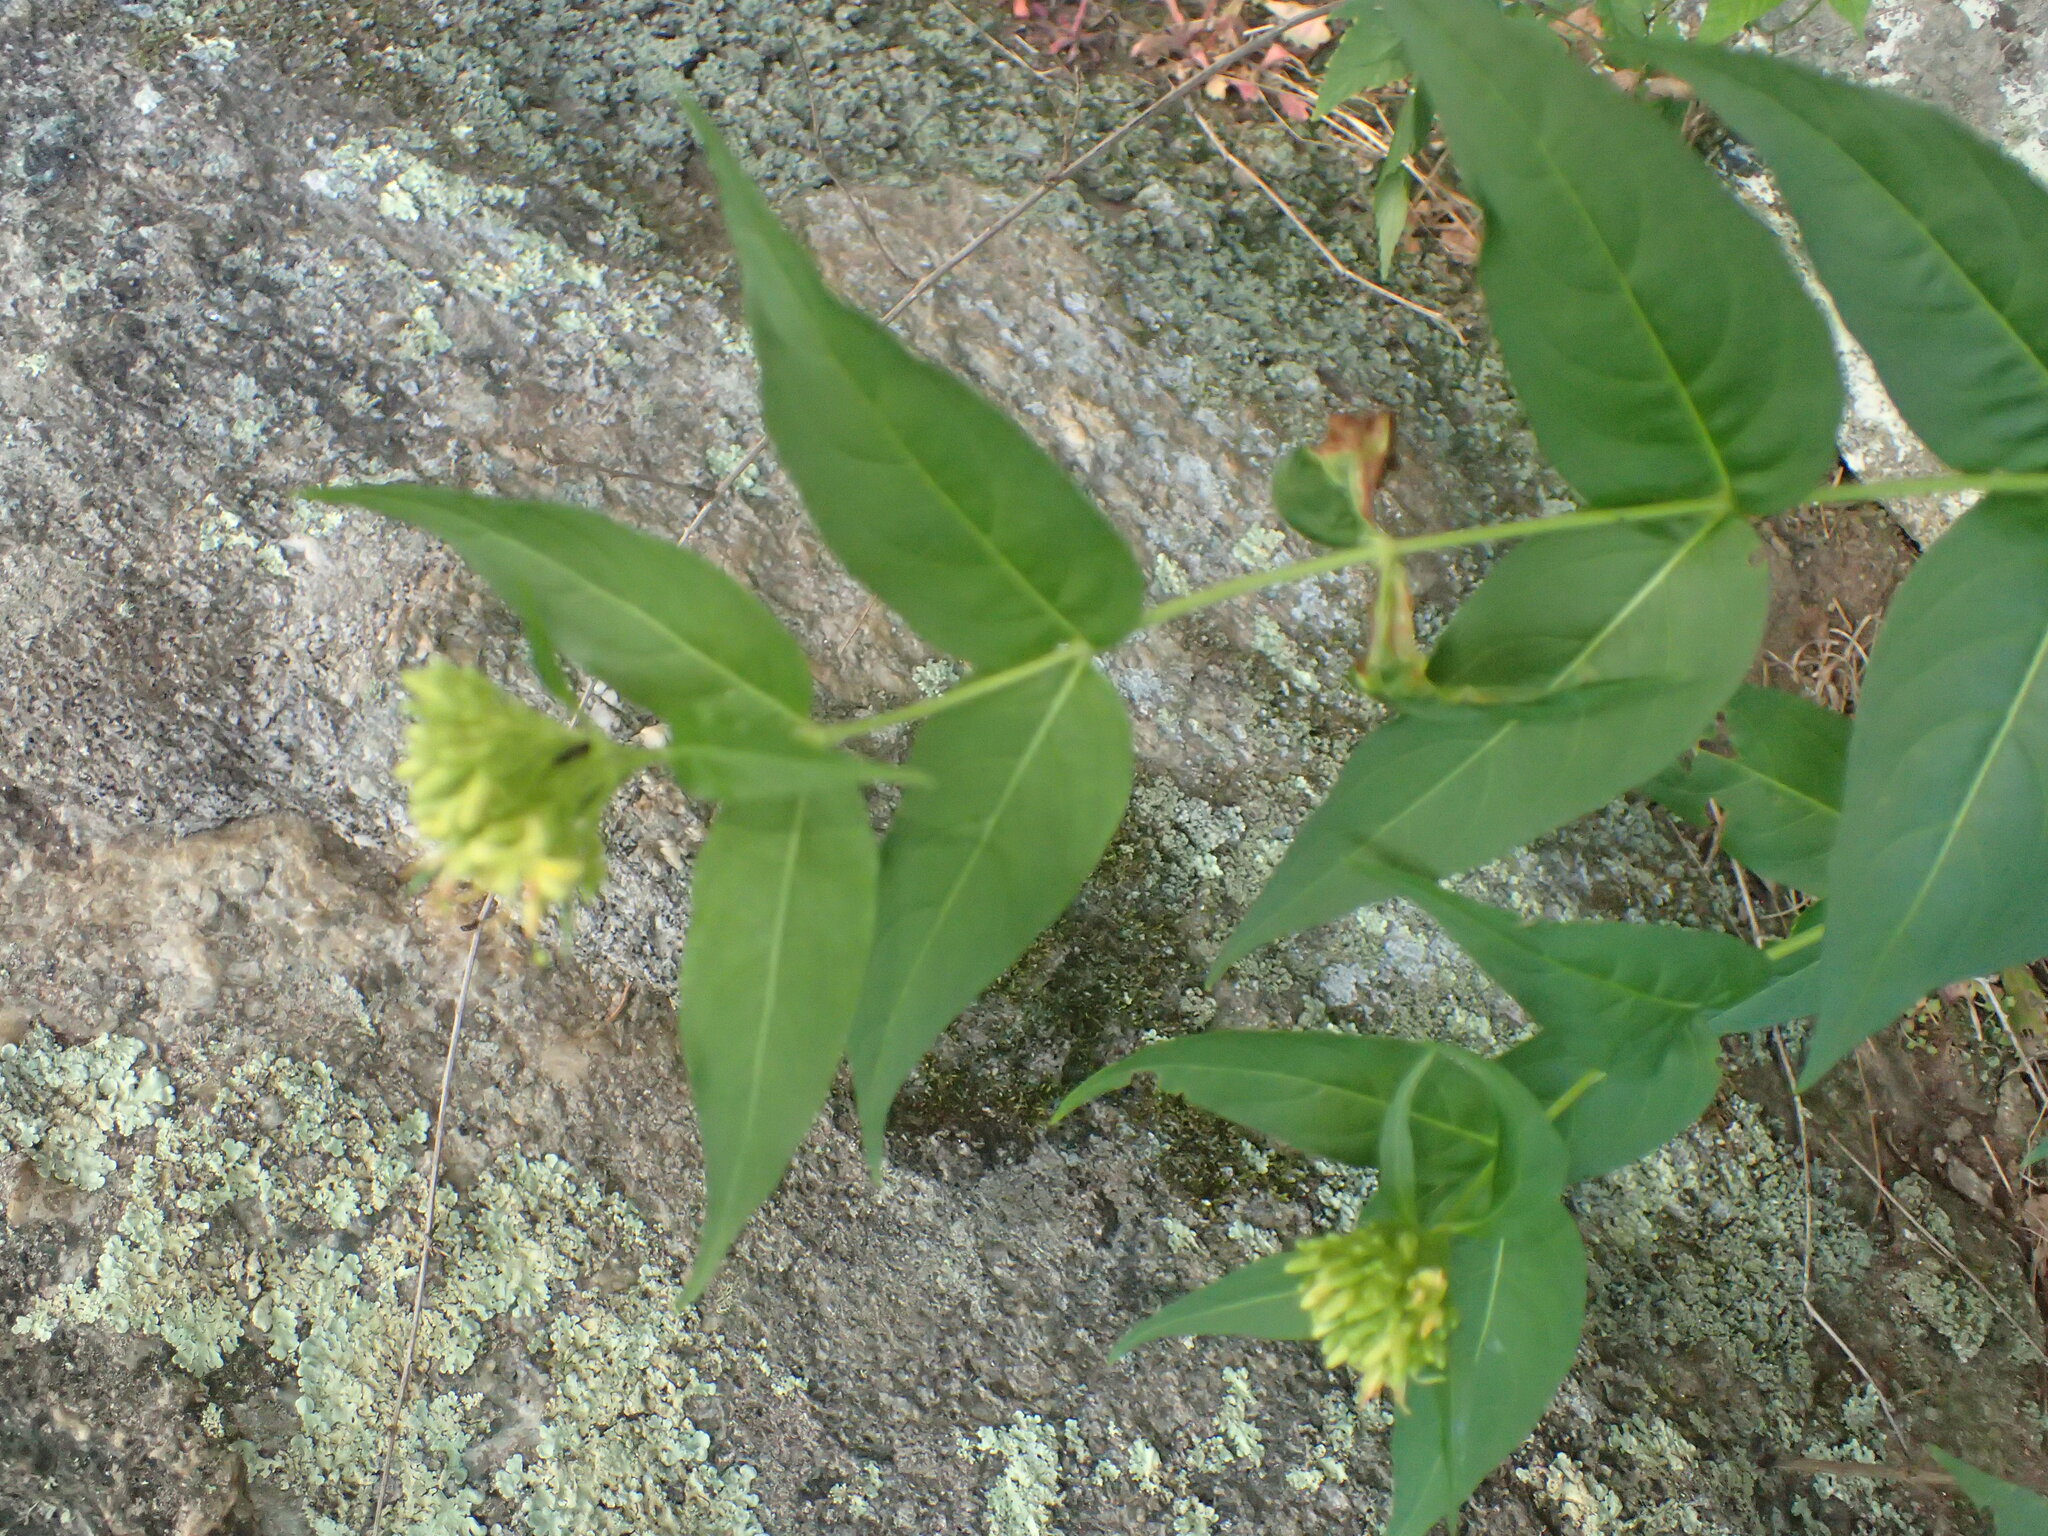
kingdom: Plantae
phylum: Tracheophyta
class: Magnoliopsida
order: Dipsacales
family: Caprifoliaceae
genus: Diervilla
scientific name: Diervilla sessilifolia
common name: Bush-honeysuckle
